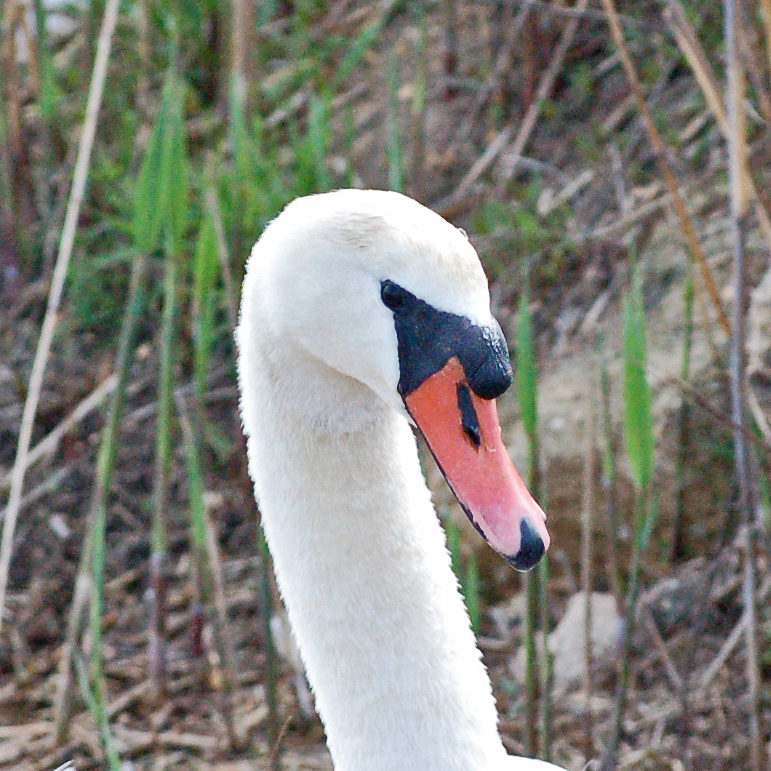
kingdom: Animalia
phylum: Chordata
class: Aves
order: Anseriformes
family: Anatidae
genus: Cygnus
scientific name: Cygnus olor
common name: Mute swan
